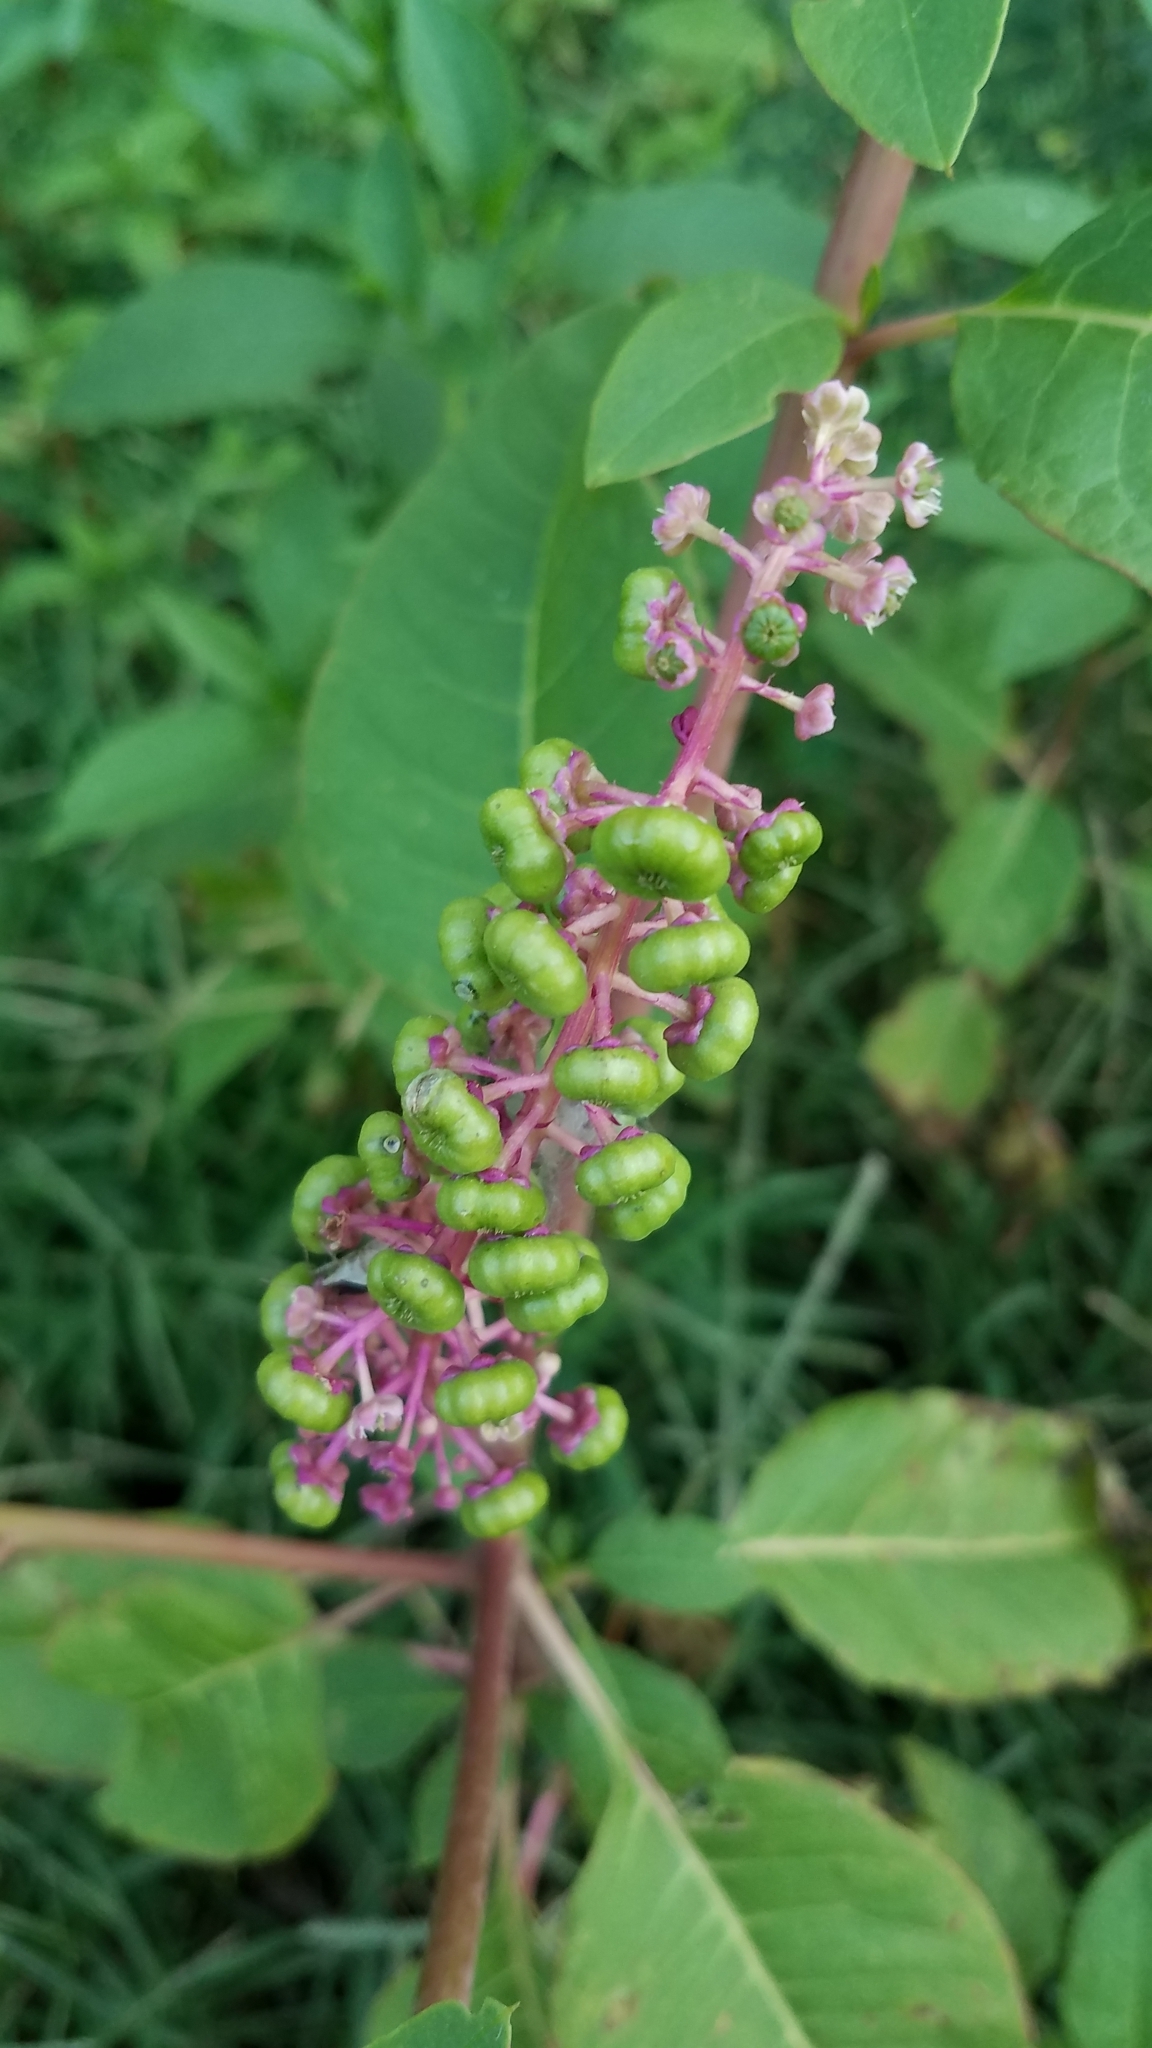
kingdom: Plantae
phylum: Tracheophyta
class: Magnoliopsida
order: Caryophyllales
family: Phytolaccaceae
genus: Phytolacca
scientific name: Phytolacca americana
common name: American pokeweed
